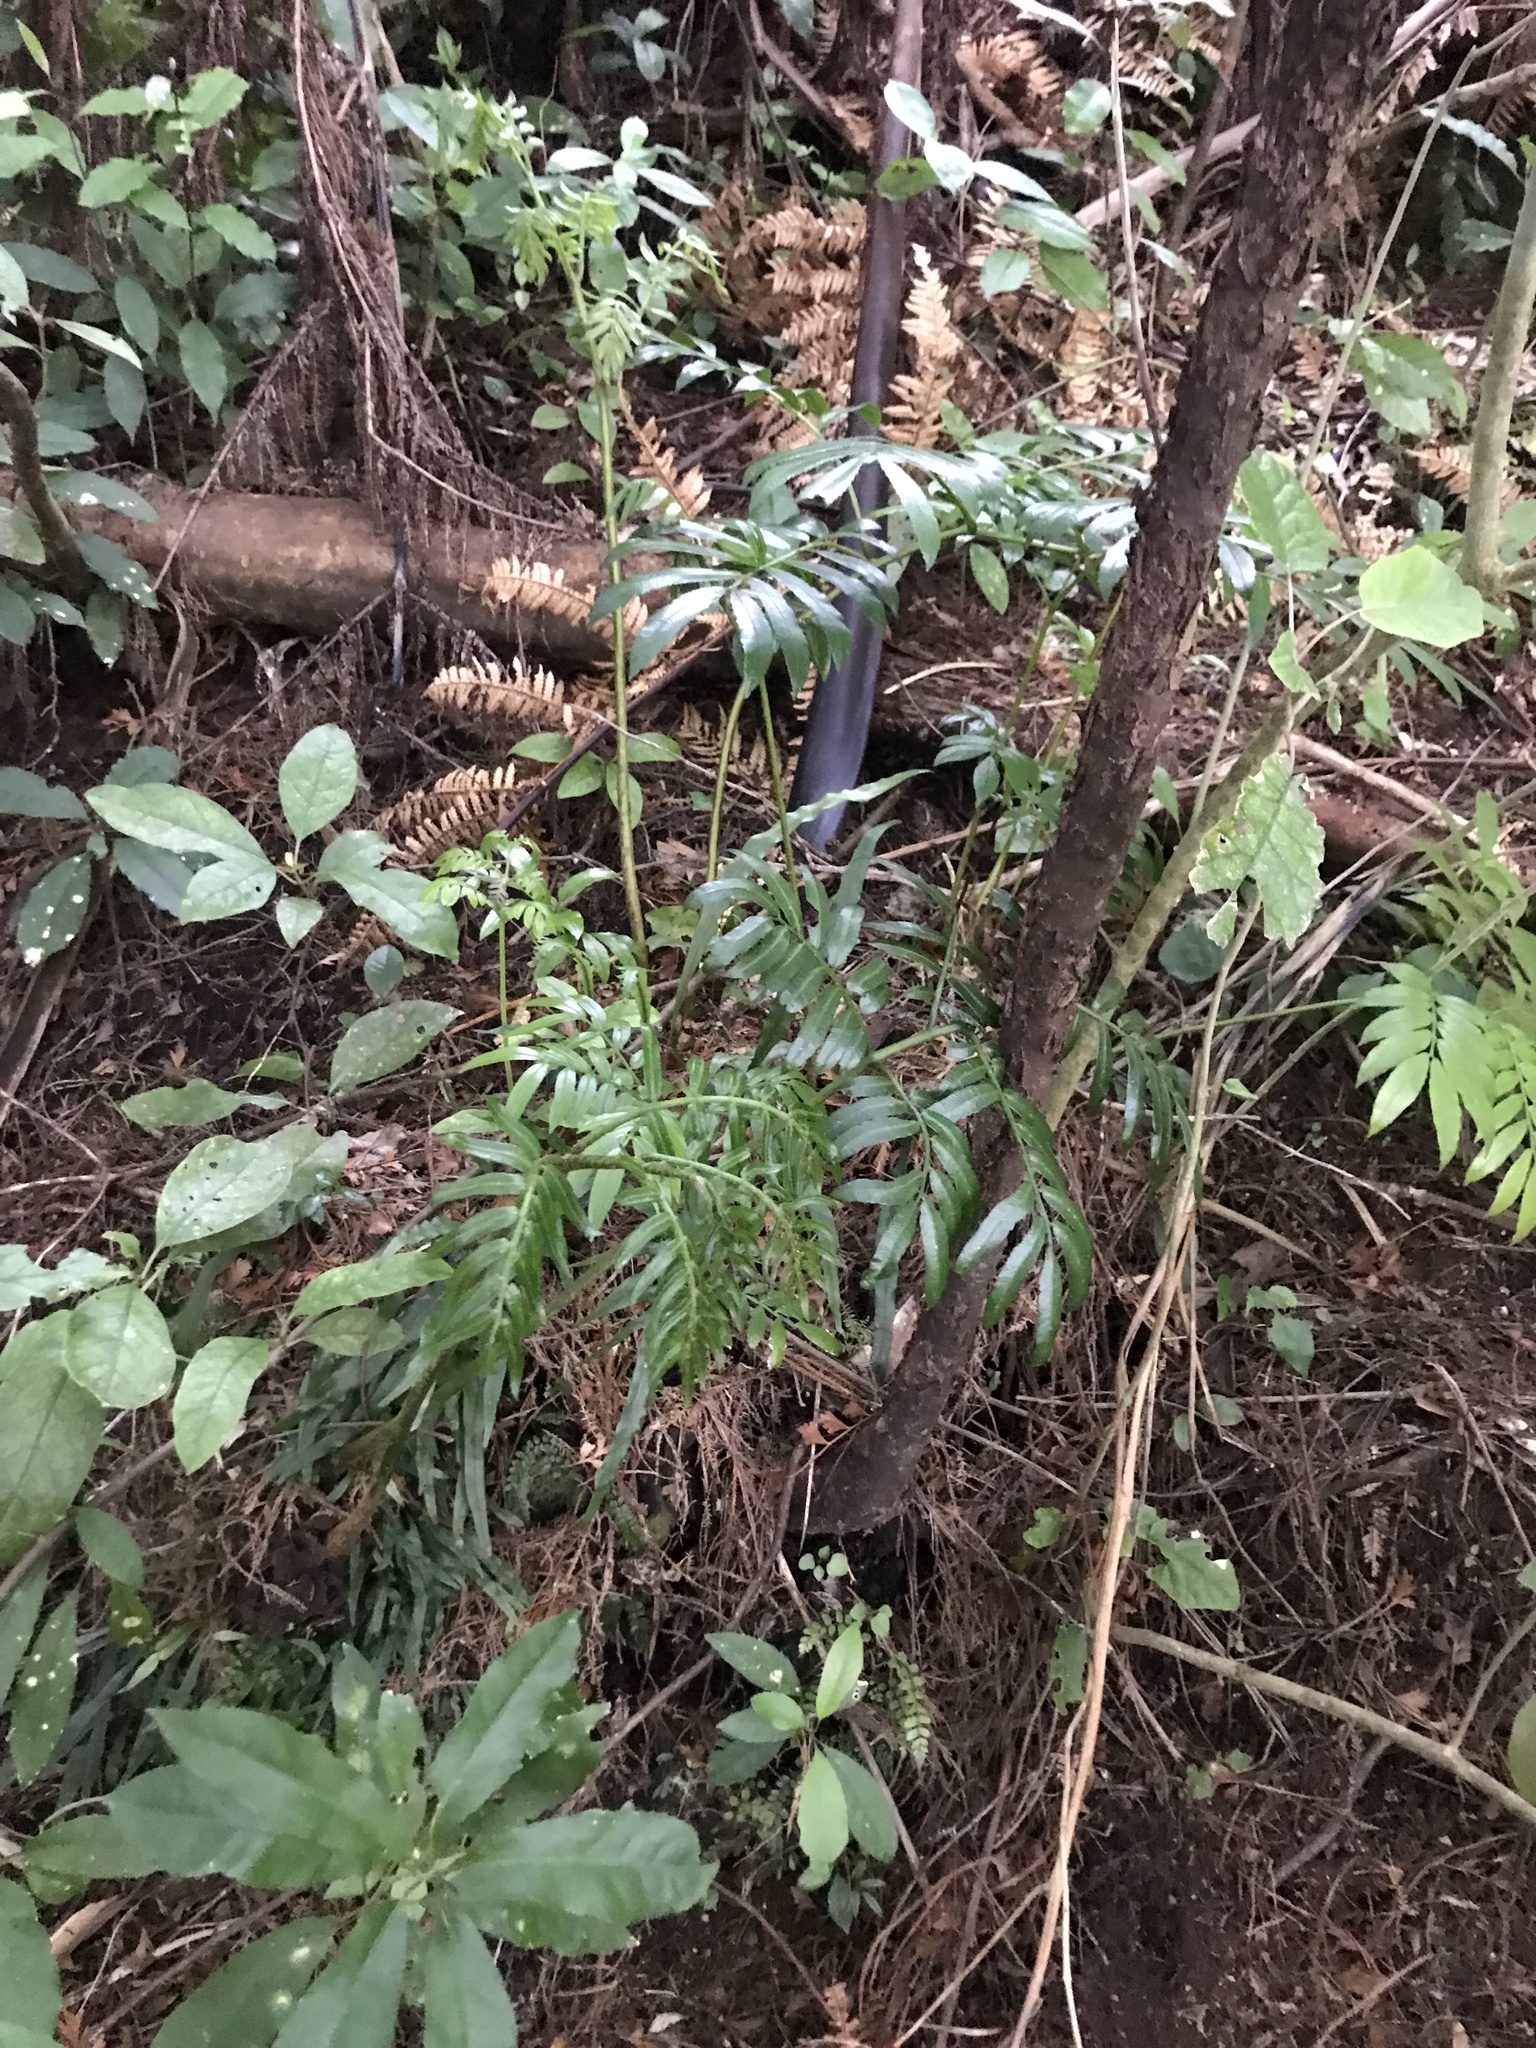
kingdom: Plantae
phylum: Tracheophyta
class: Polypodiopsida
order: Marattiales
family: Marattiaceae
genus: Ptisana
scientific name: Ptisana salicina
